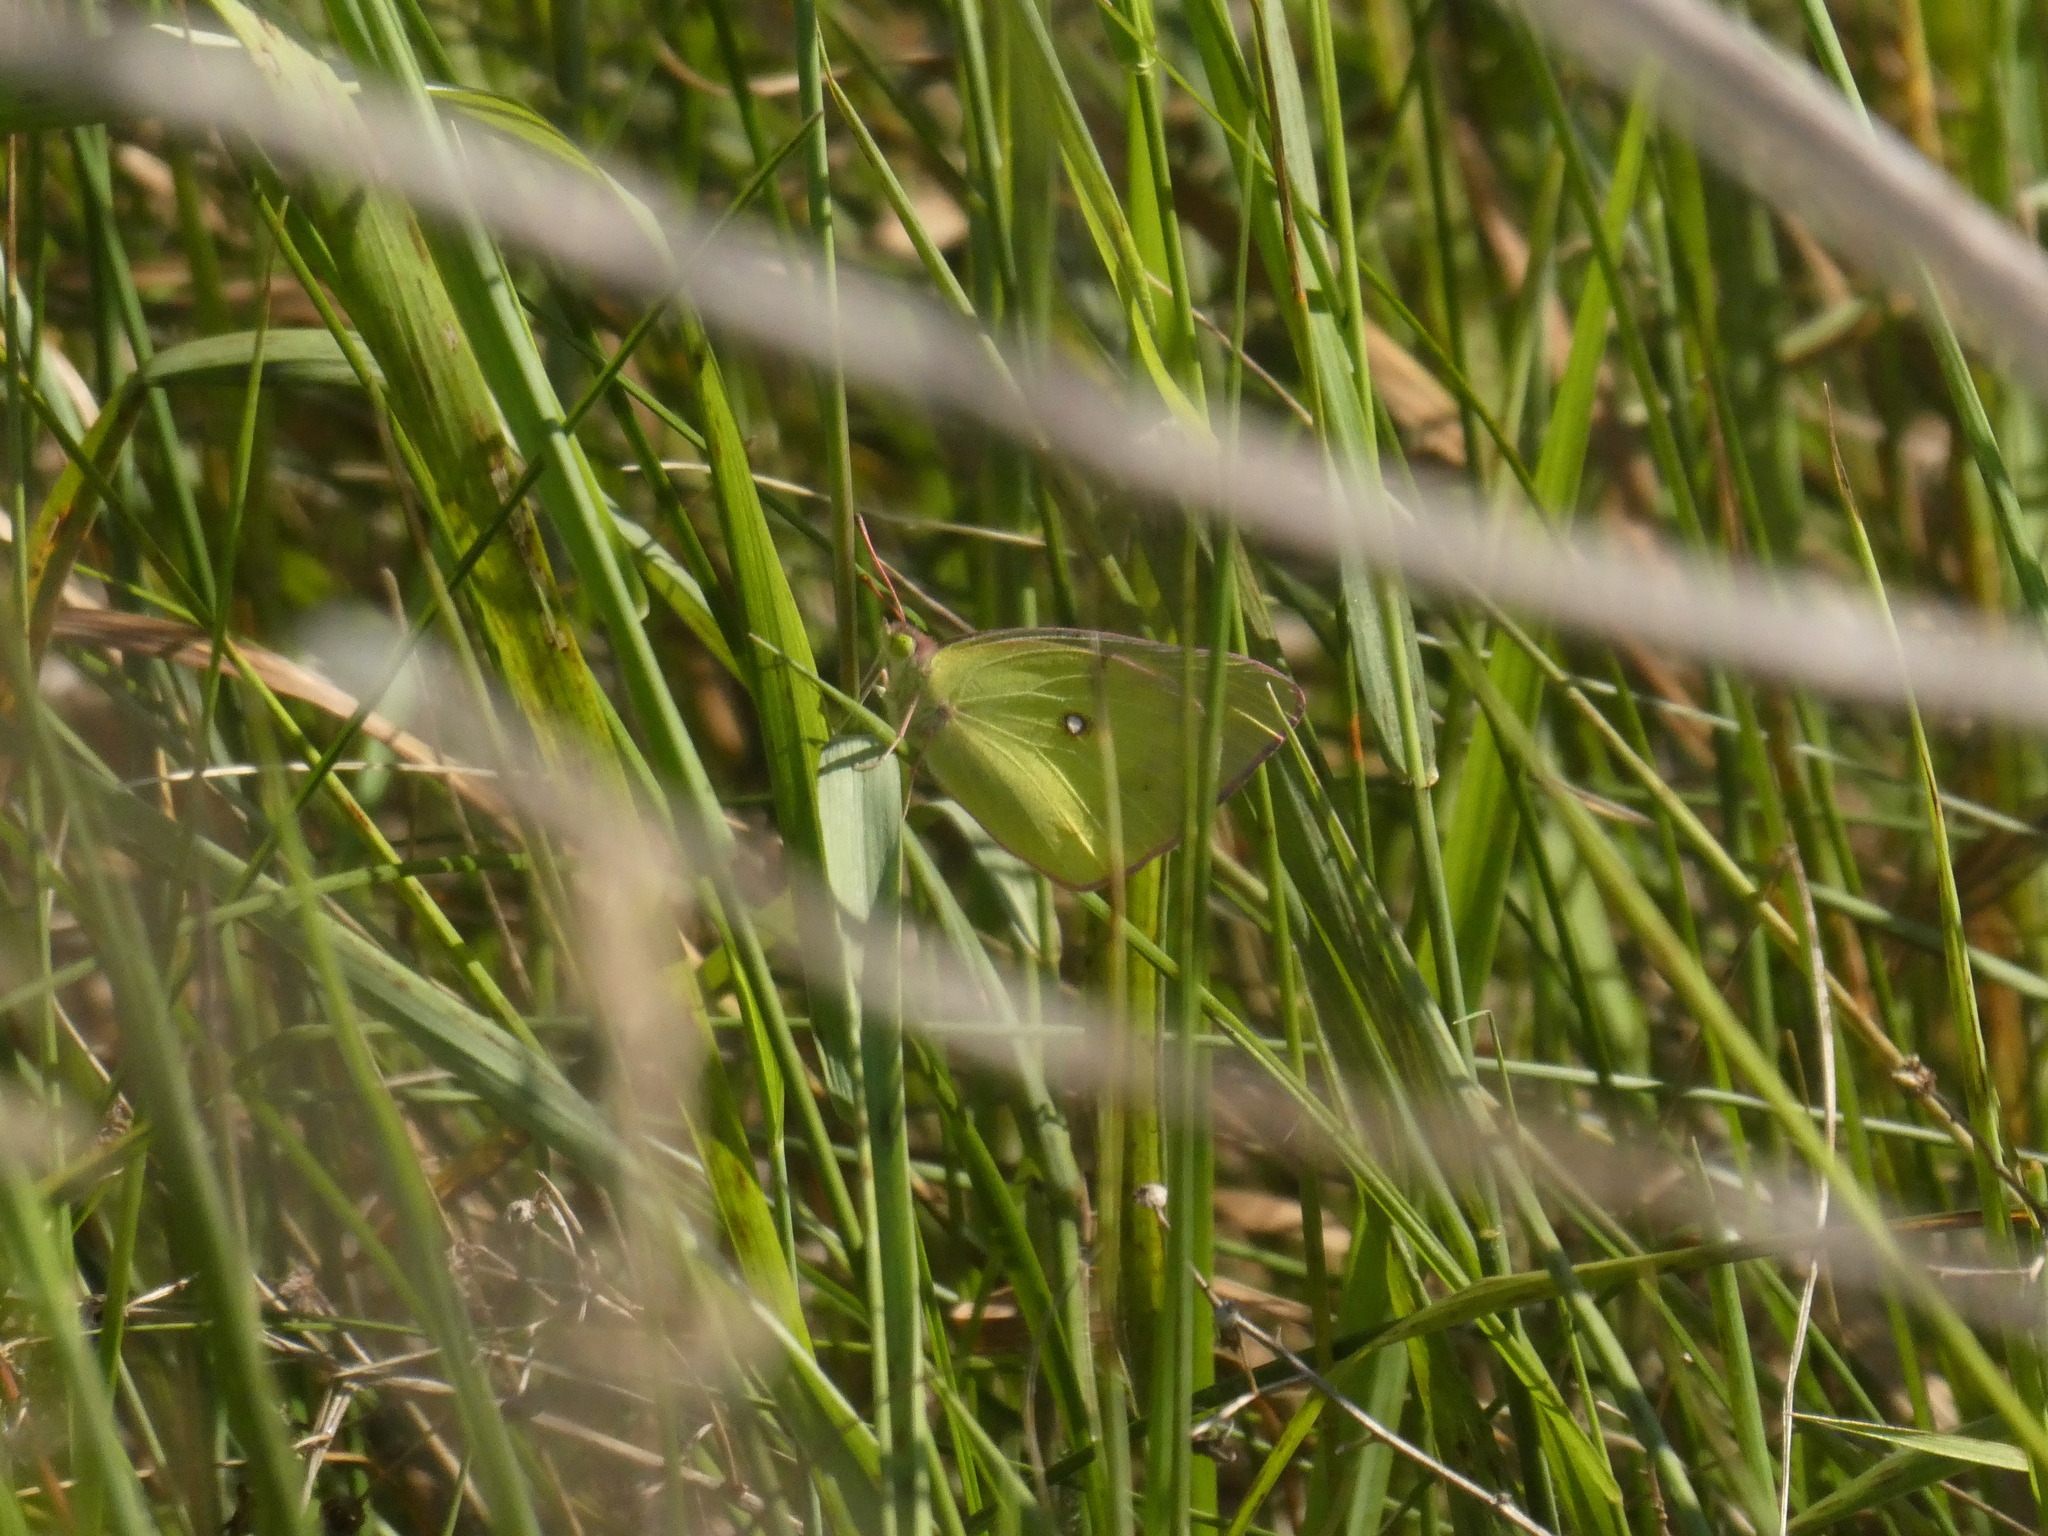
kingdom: Animalia
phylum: Arthropoda
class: Insecta
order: Lepidoptera
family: Pieridae
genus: Colias
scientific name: Colias philodice
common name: Clouded sulphur
